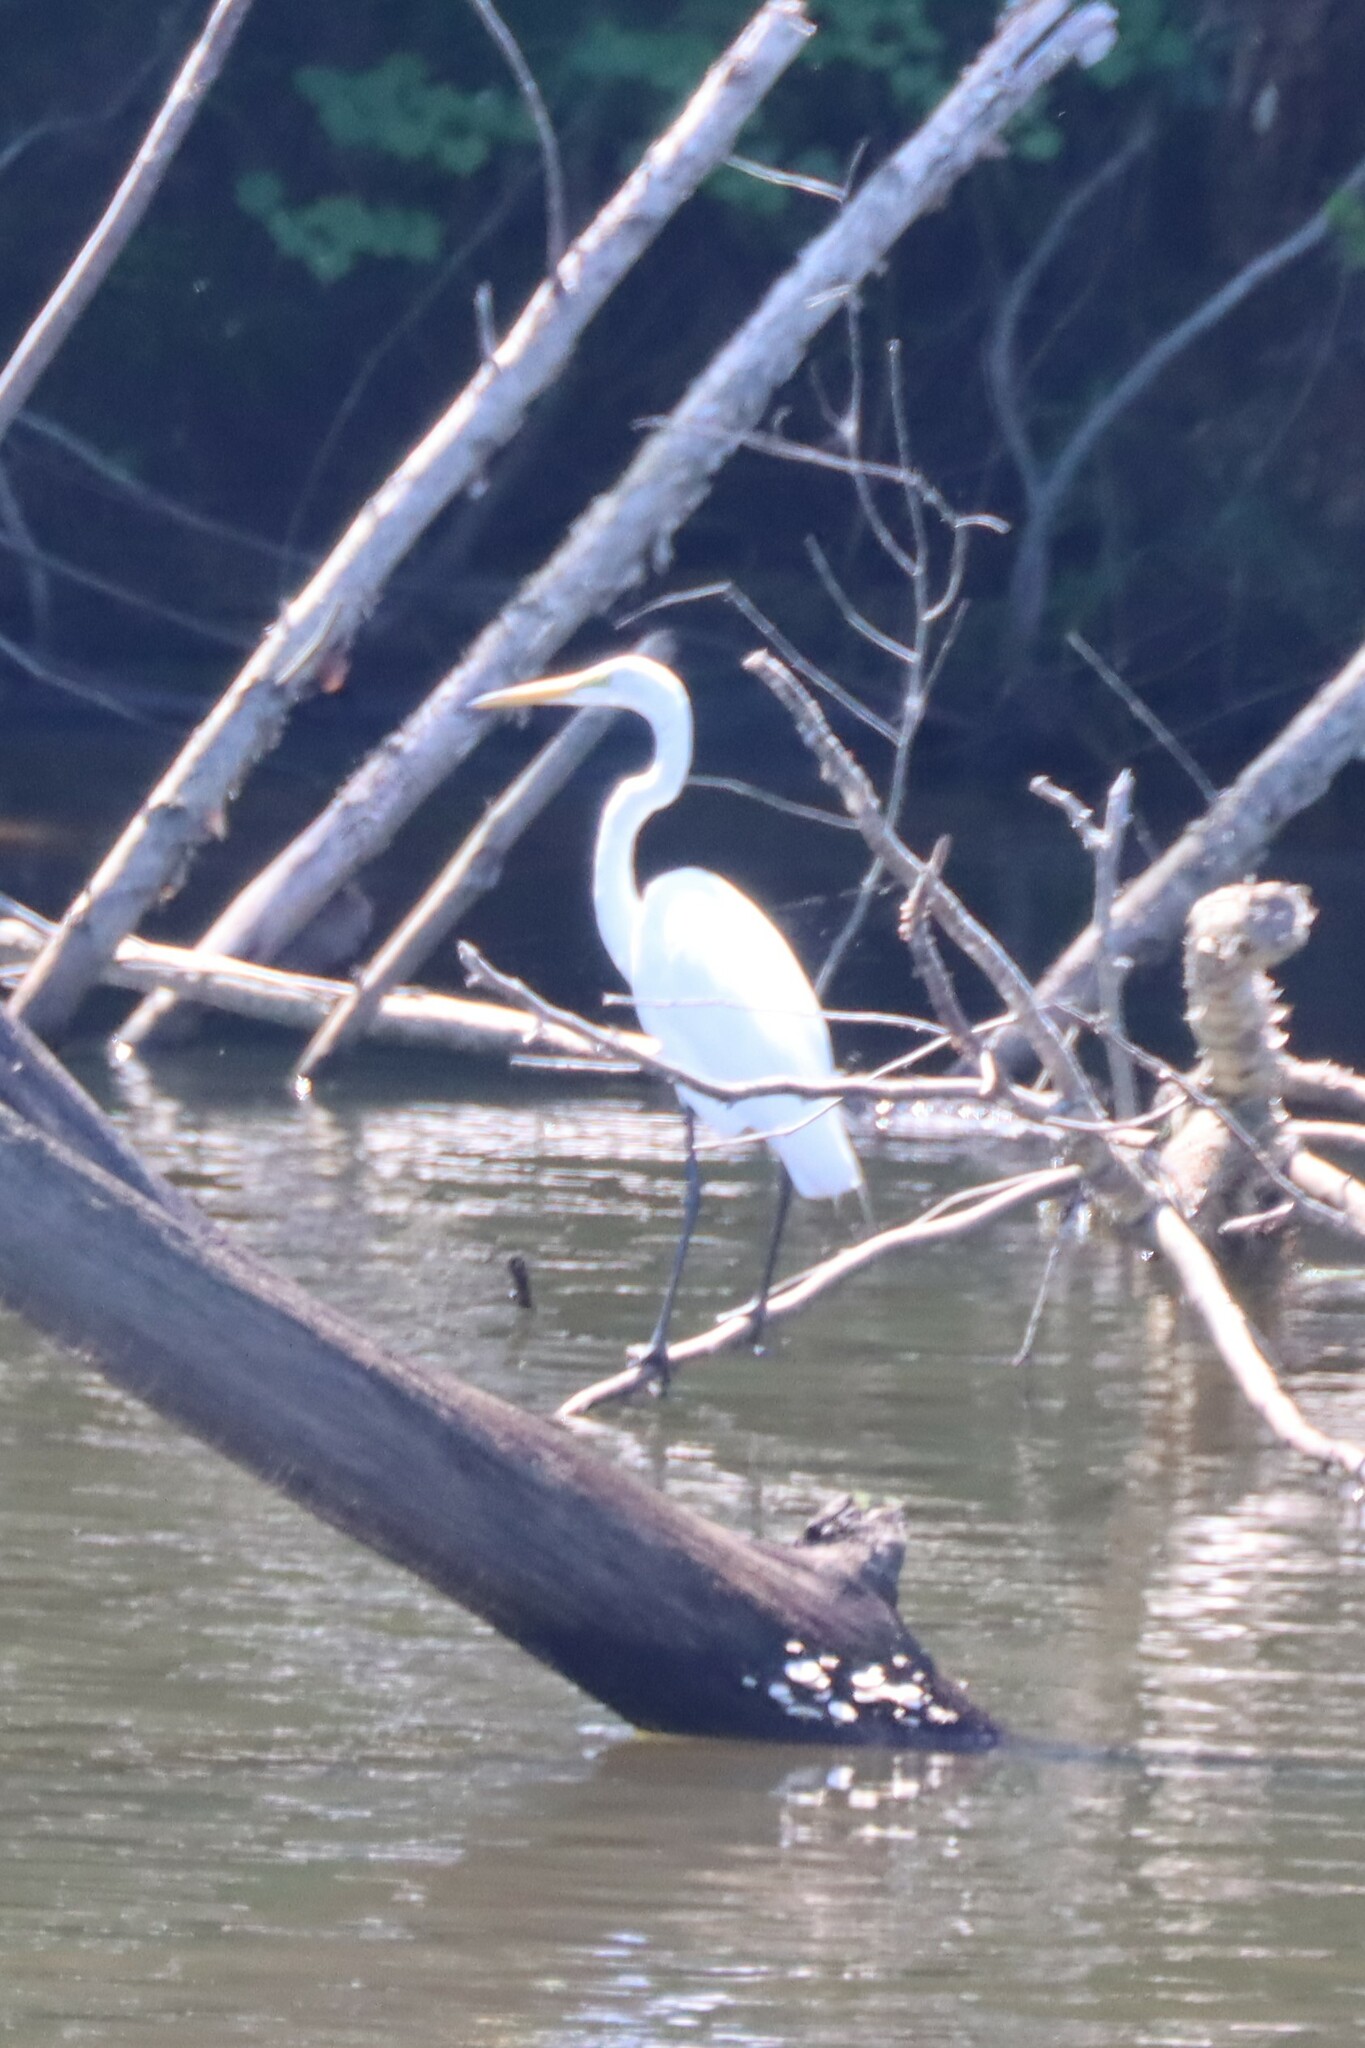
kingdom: Animalia
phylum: Chordata
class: Aves
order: Pelecaniformes
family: Ardeidae
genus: Ardea
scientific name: Ardea alba
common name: Great egret
